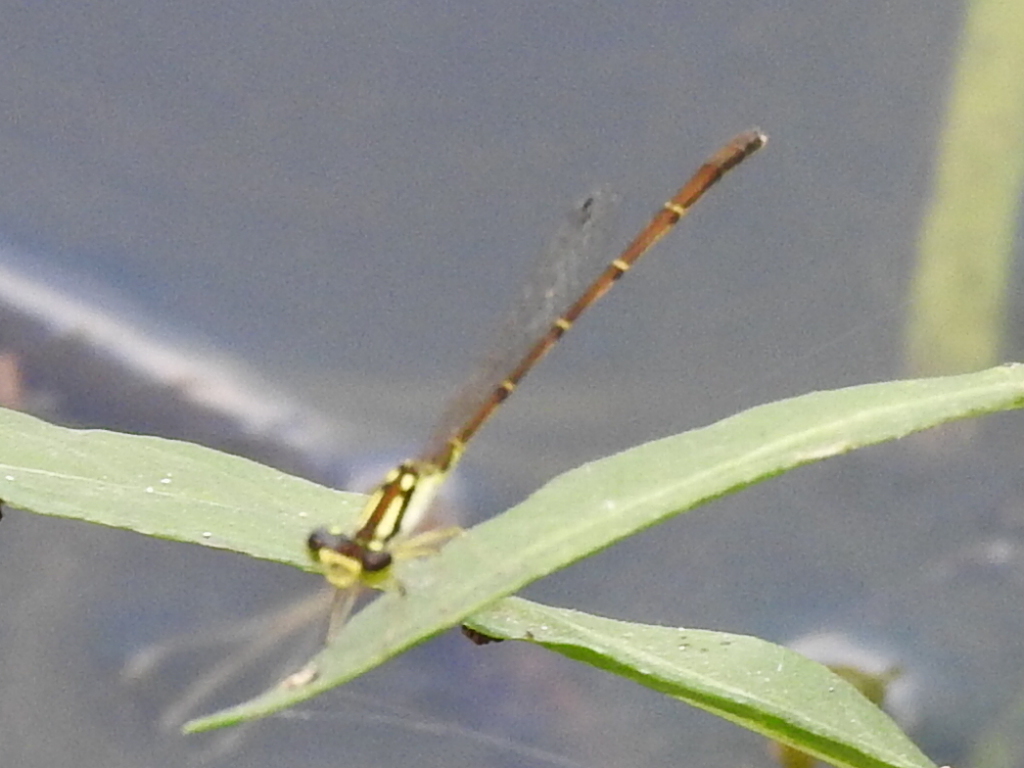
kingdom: Animalia
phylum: Arthropoda
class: Insecta
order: Odonata
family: Coenagrionidae
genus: Ischnura
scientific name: Ischnura posita
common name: Fragile forktail
